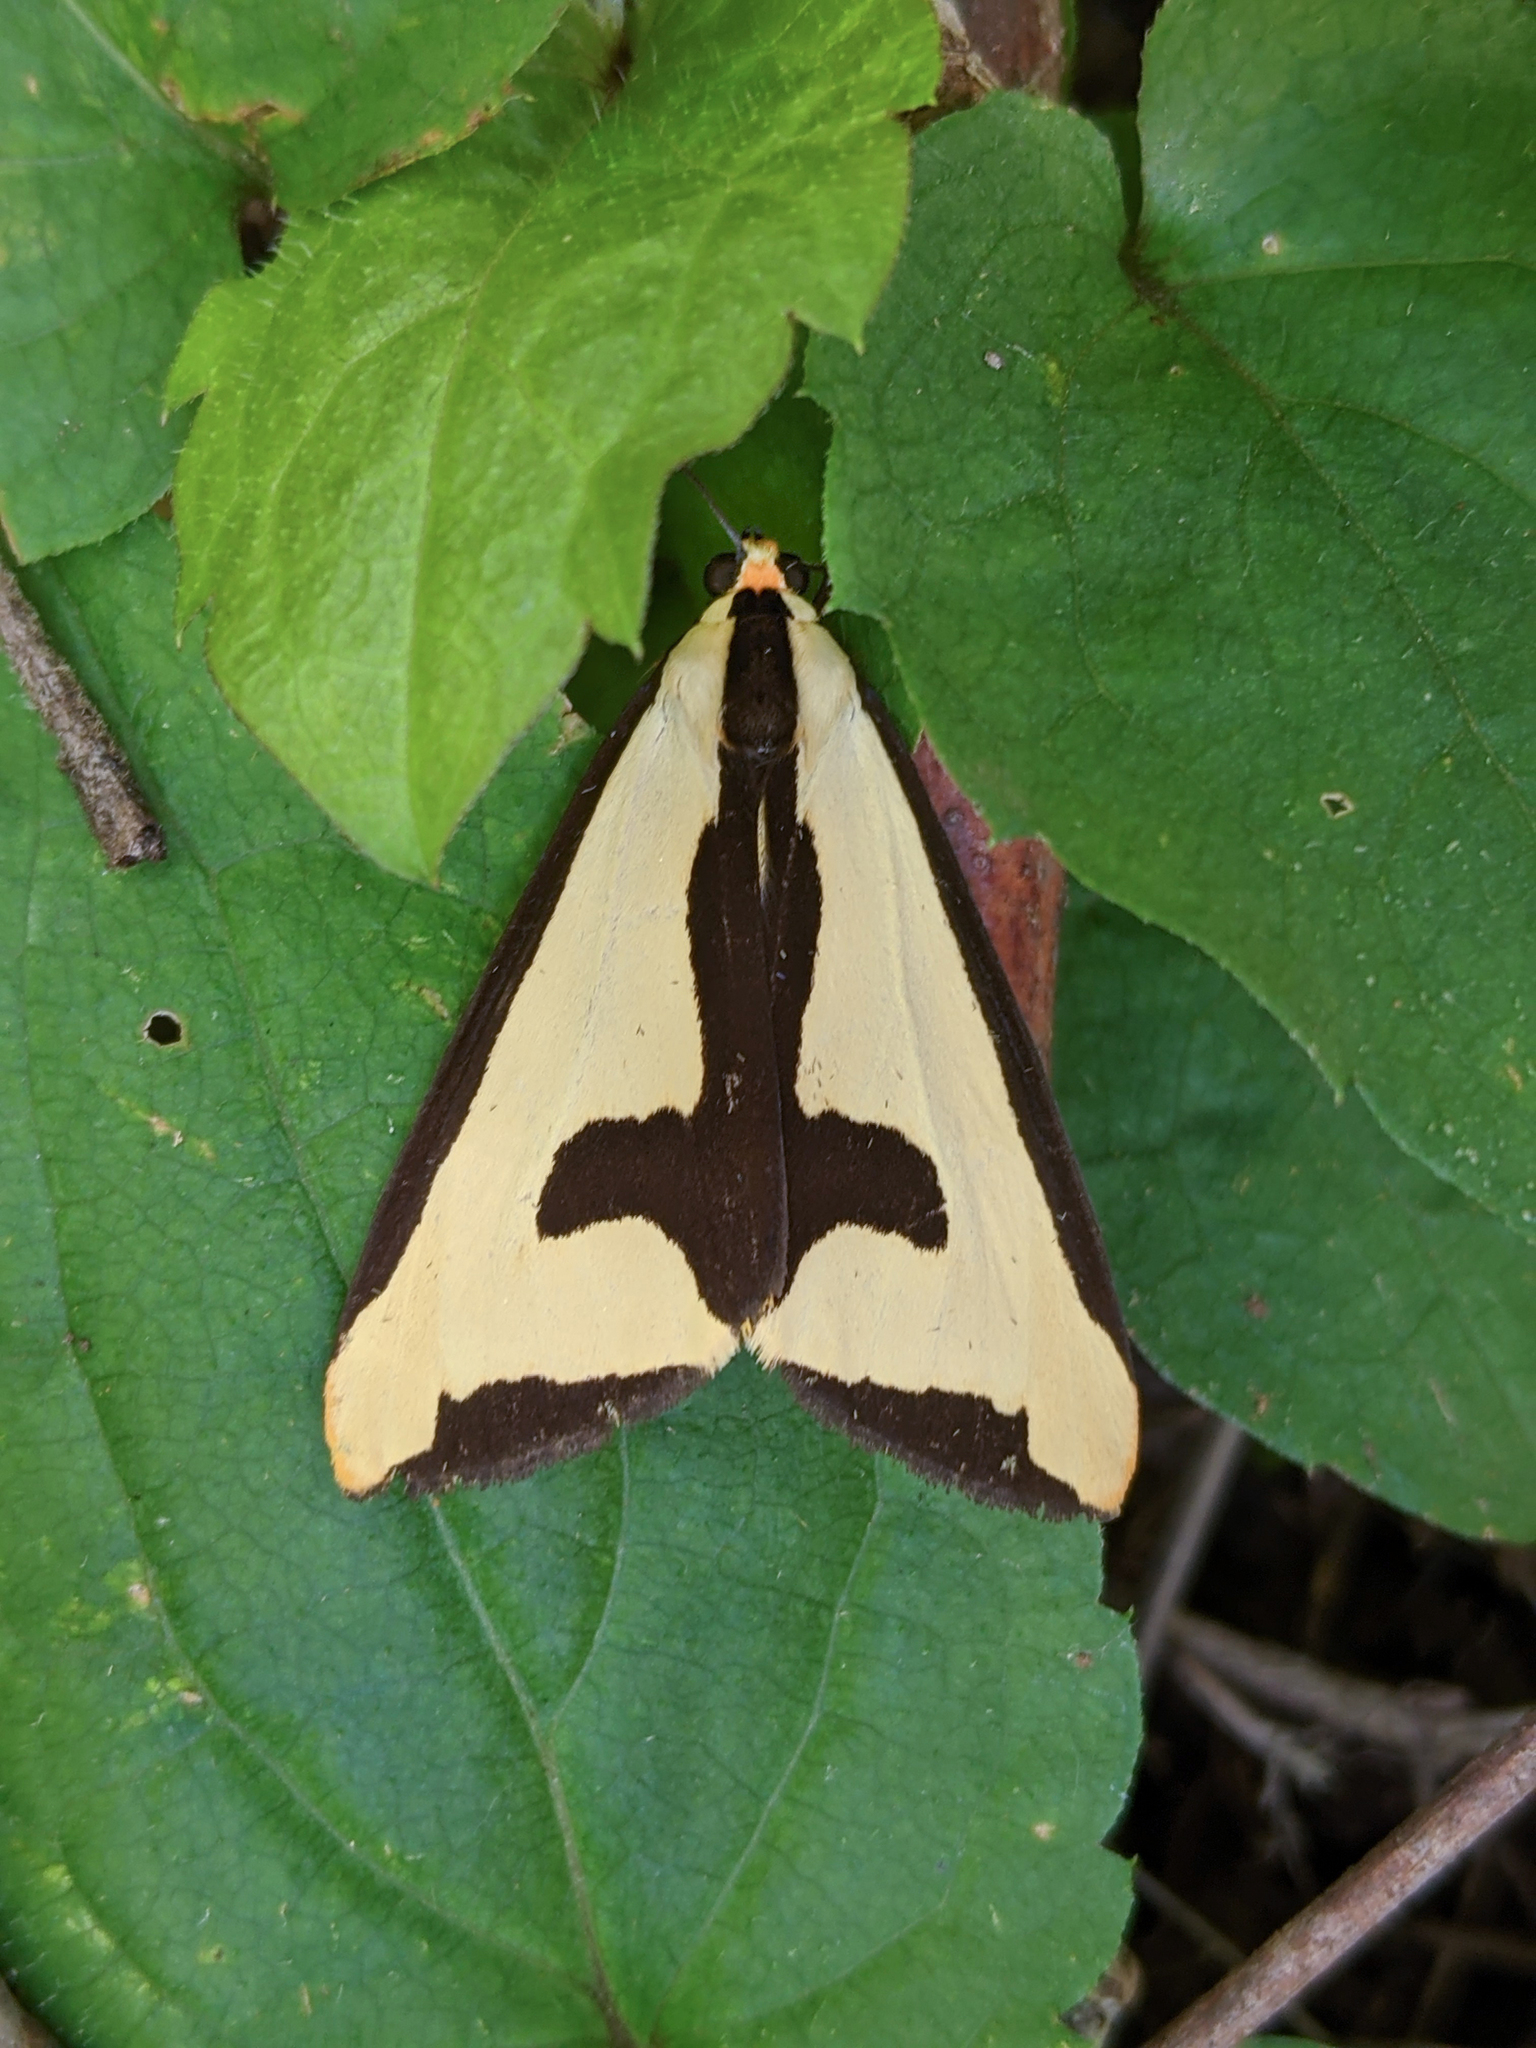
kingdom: Animalia
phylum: Arthropoda
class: Insecta
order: Lepidoptera
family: Erebidae
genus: Haploa
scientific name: Haploa clymene
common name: Clymene moth
